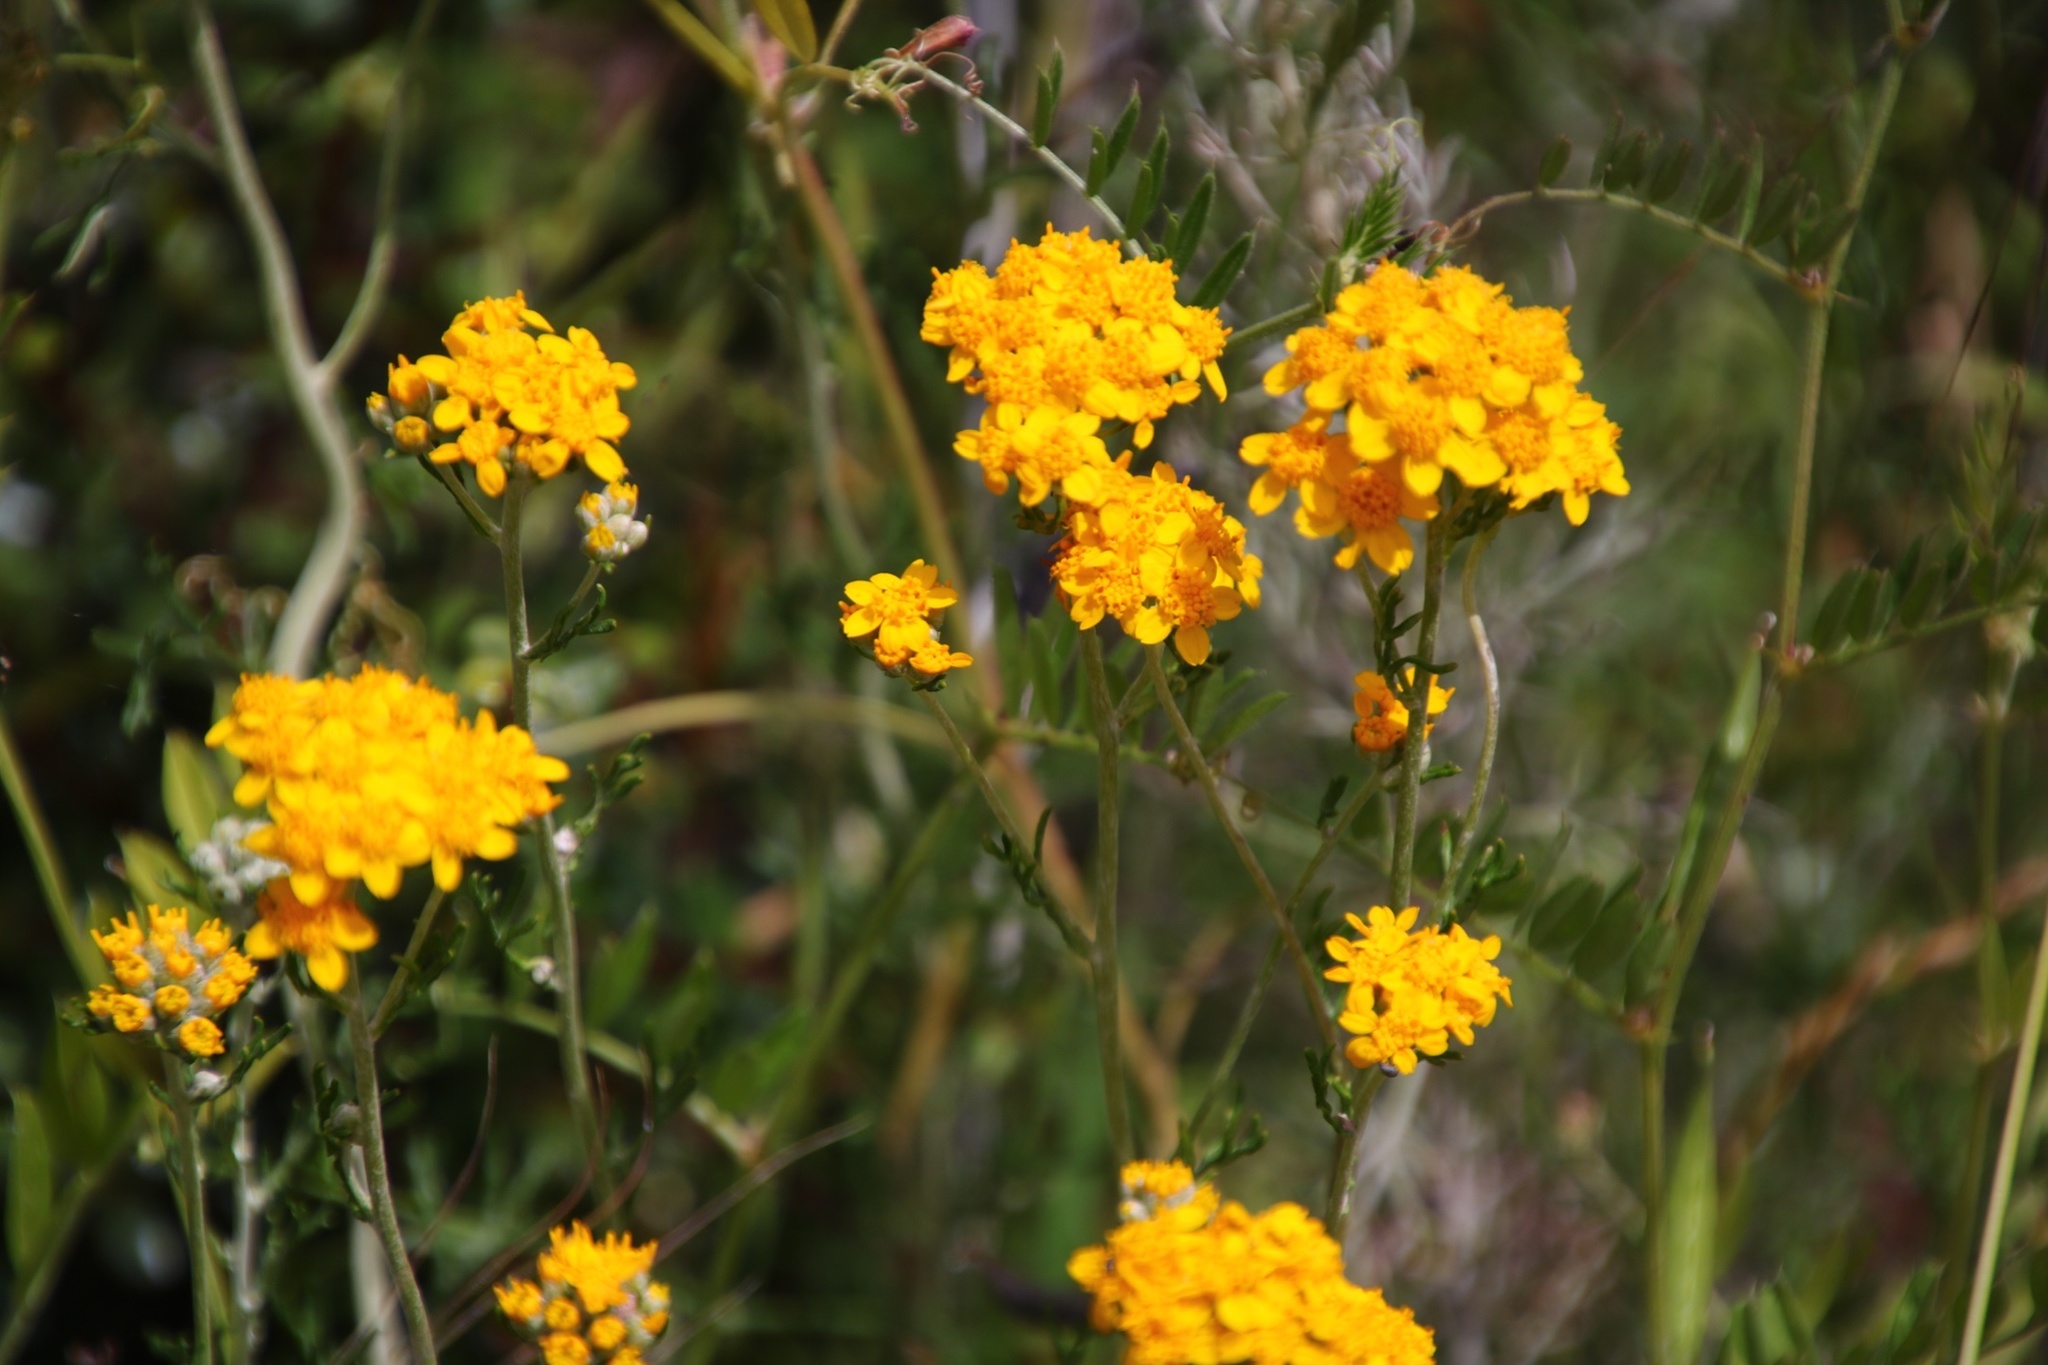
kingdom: Plantae
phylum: Tracheophyta
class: Magnoliopsida
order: Asterales
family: Asteraceae
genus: Eriophyllum
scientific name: Eriophyllum confertiflorum
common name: Golden-yarrow
